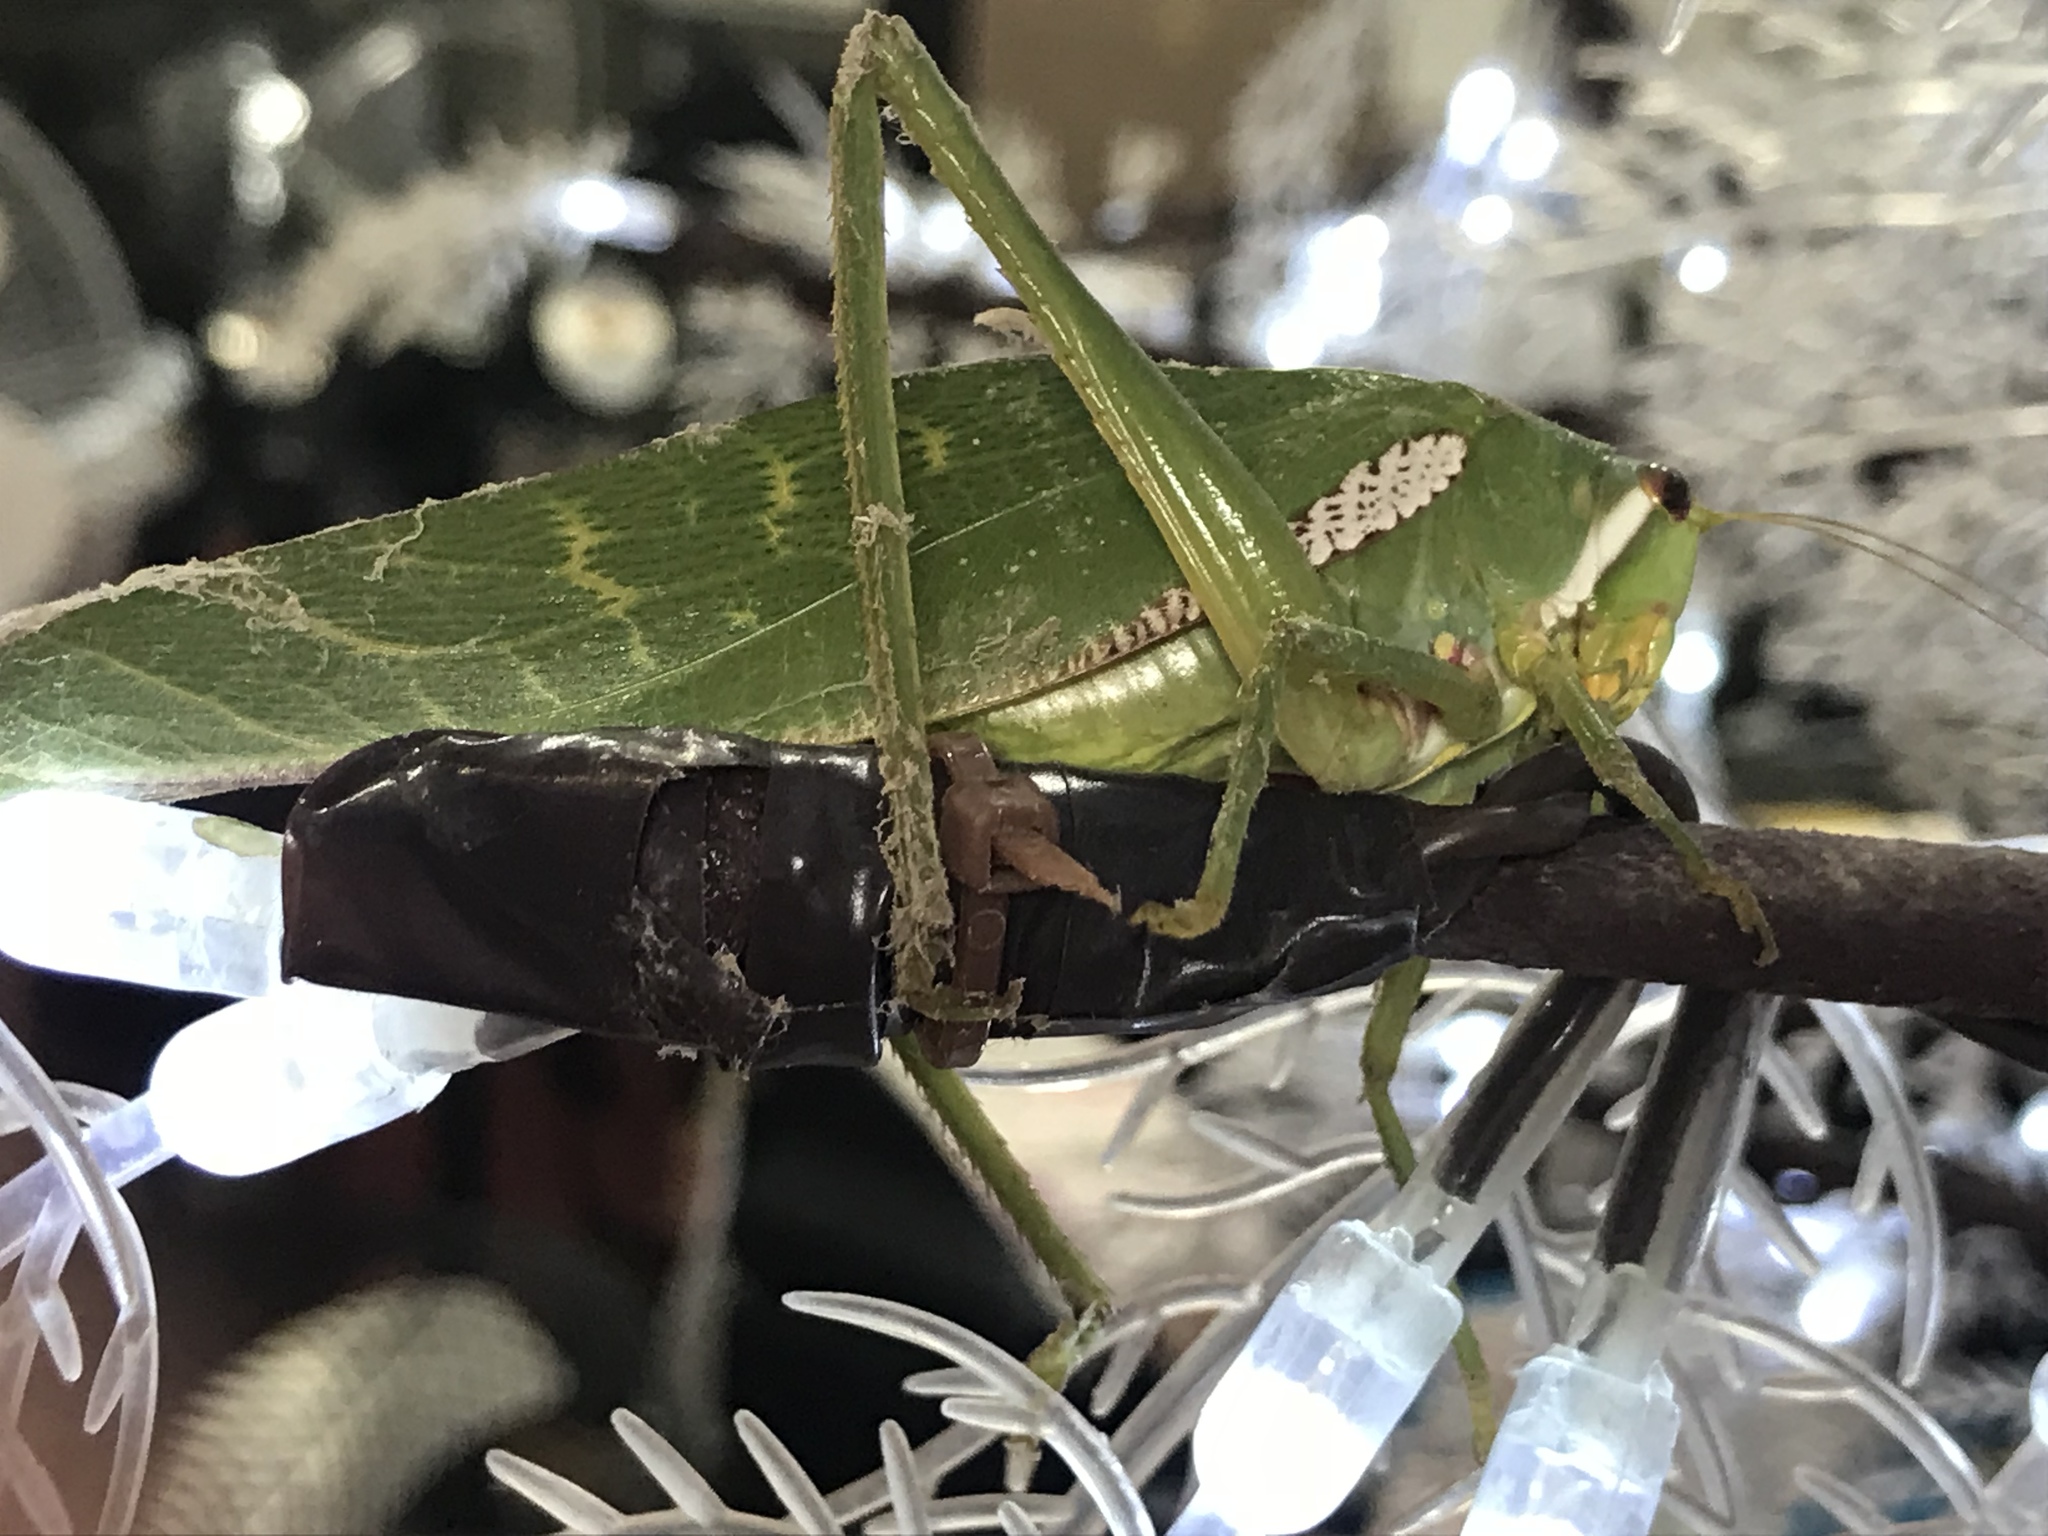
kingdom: Animalia
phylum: Arthropoda
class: Insecta
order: Orthoptera
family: Tettigoniidae
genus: Philophyllia
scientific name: Philophyllia guttulata
